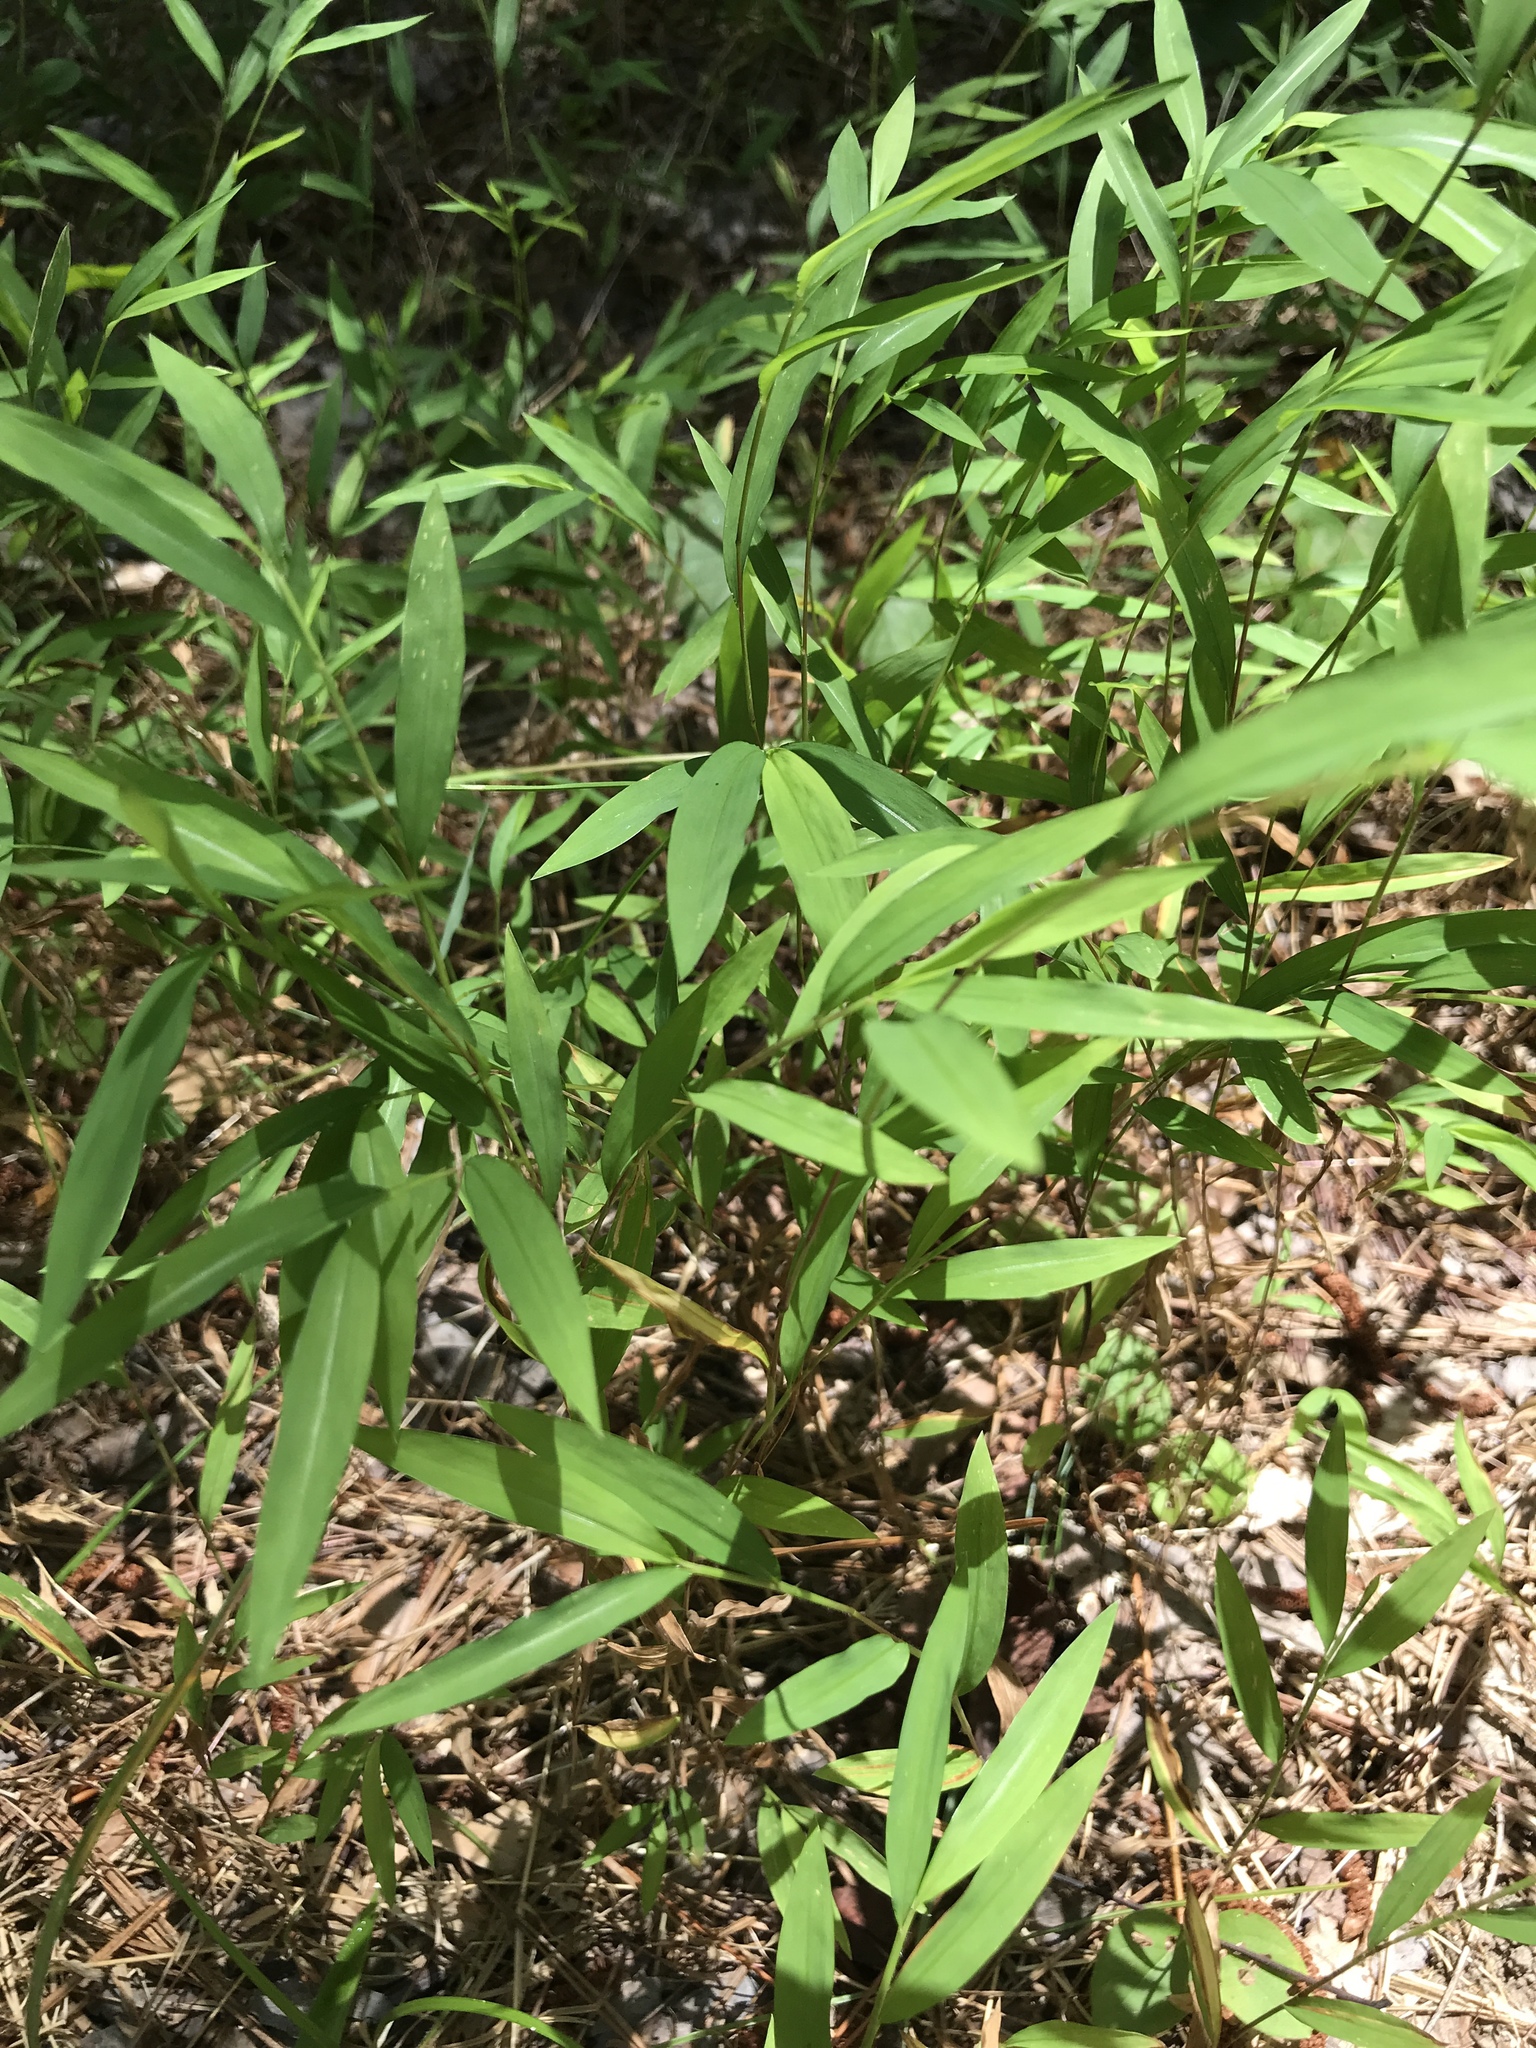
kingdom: Plantae
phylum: Tracheophyta
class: Liliopsida
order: Poales
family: Poaceae
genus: Microstegium
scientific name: Microstegium vimineum
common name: Japanese stiltgrass
